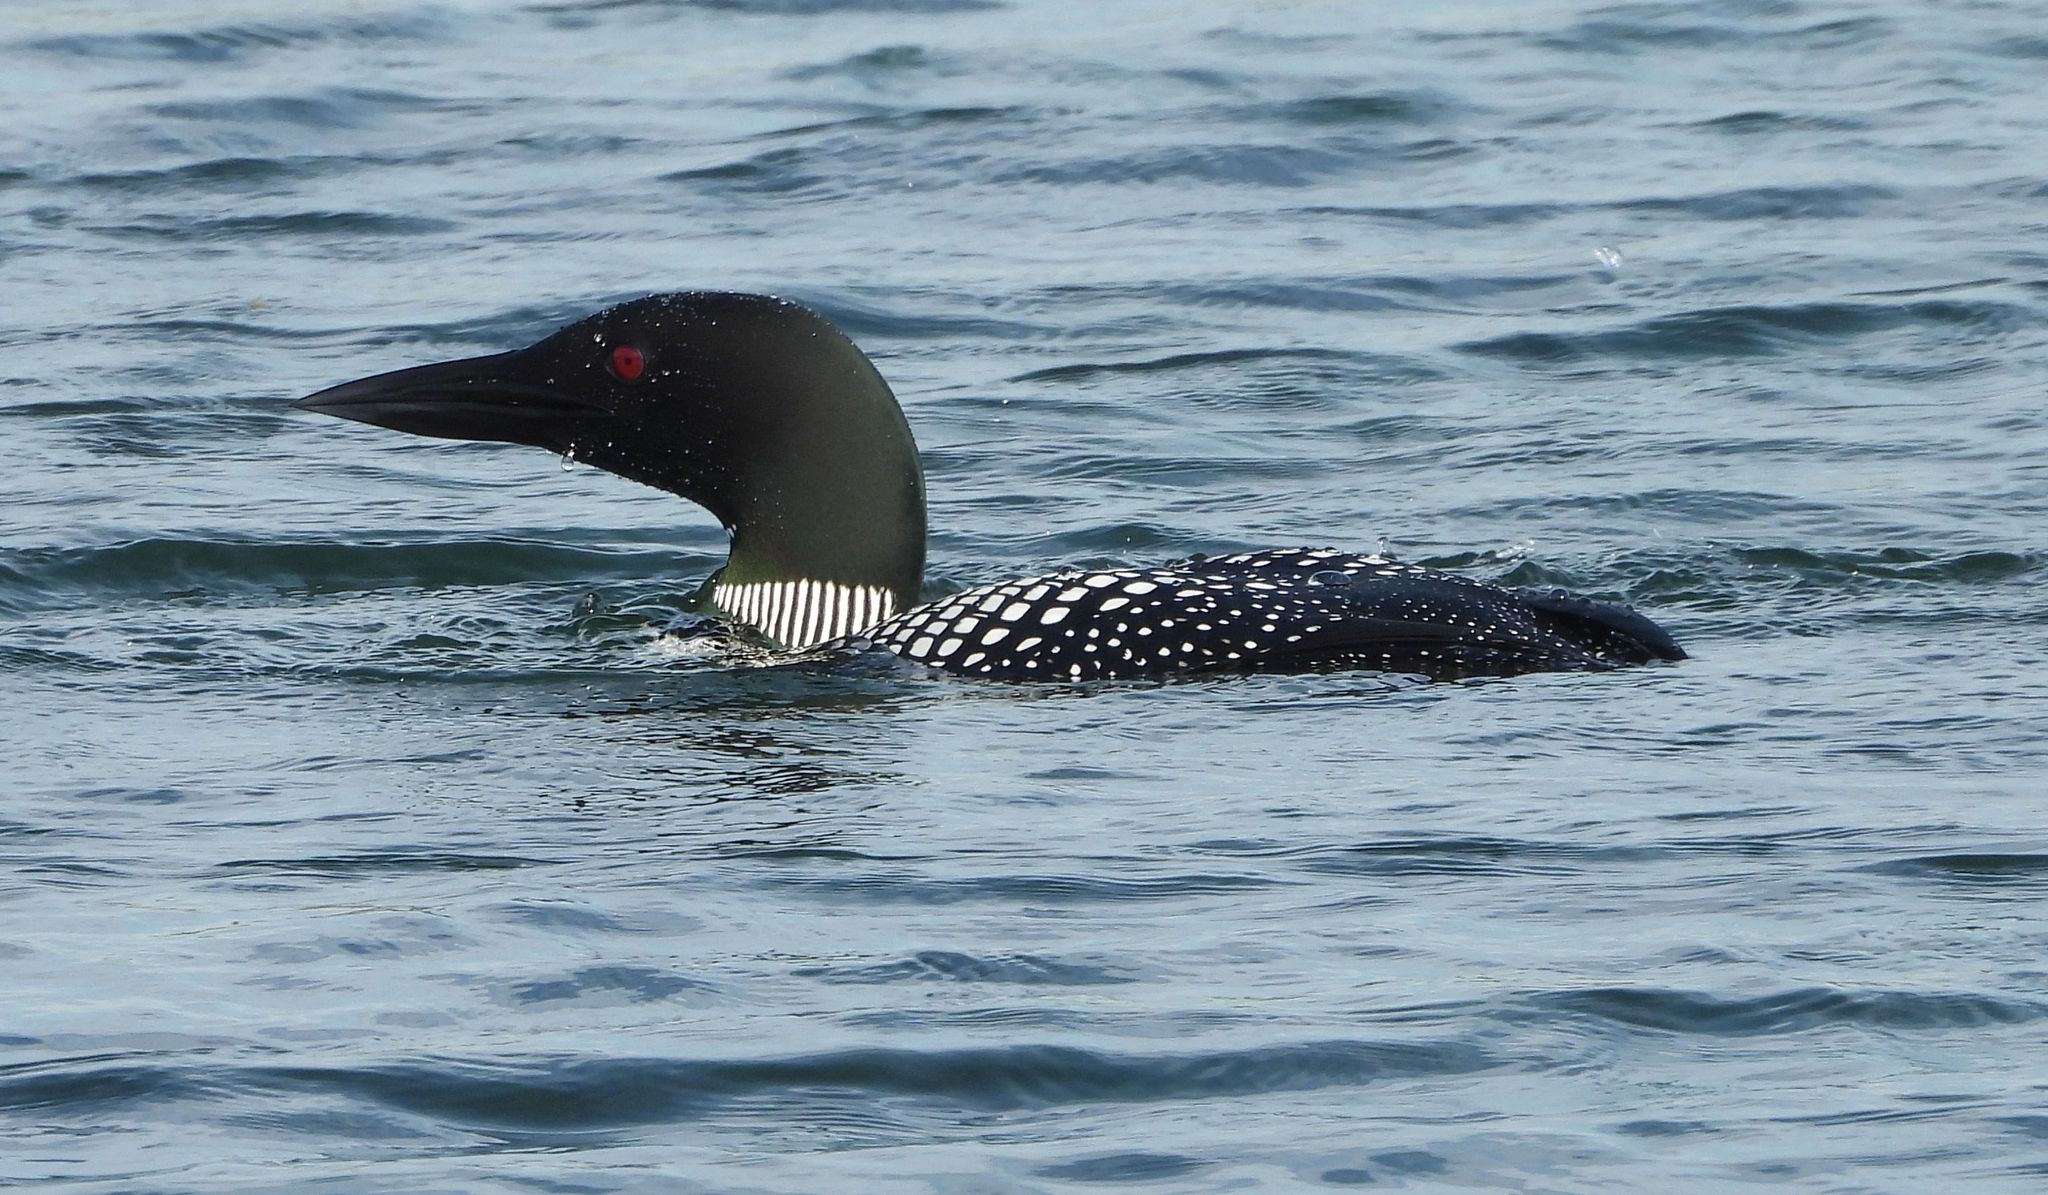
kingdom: Animalia
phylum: Chordata
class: Aves
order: Gaviiformes
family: Gaviidae
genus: Gavia
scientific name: Gavia immer
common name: Common loon
